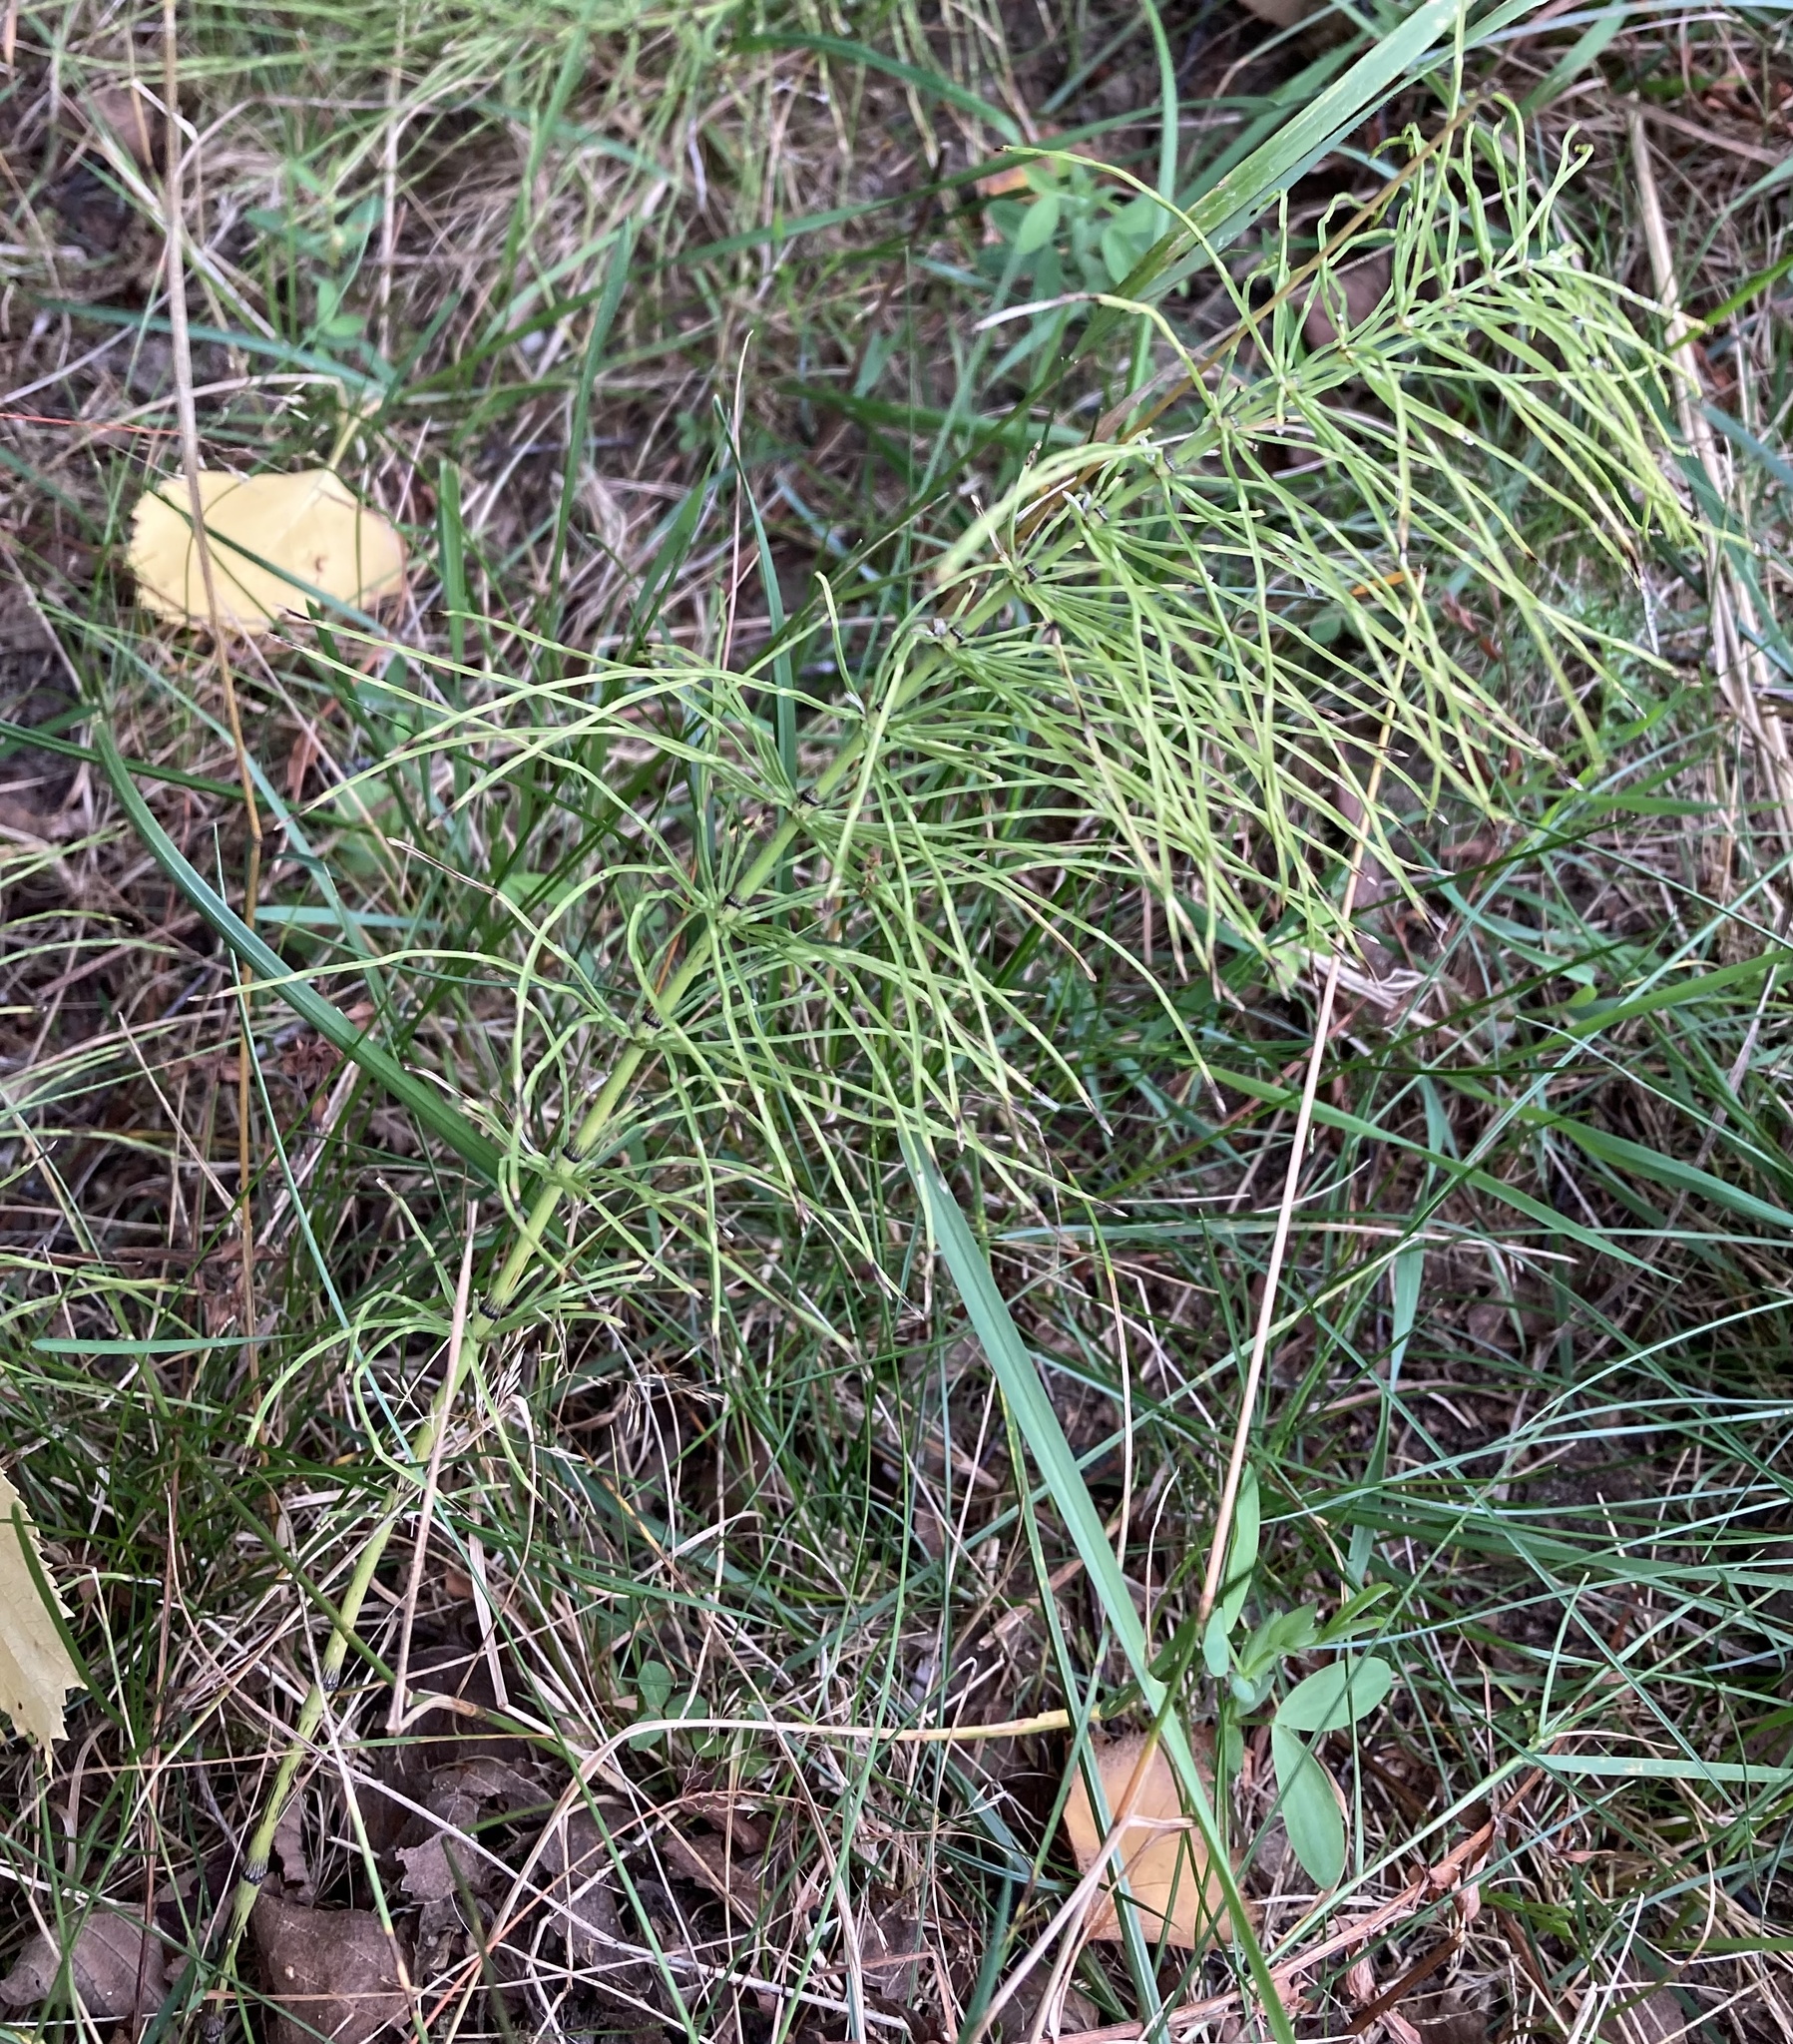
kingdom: Plantae
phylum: Tracheophyta
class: Polypodiopsida
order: Equisetales
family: Equisetaceae
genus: Equisetum
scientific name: Equisetum pratense
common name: Meadow horsetail
